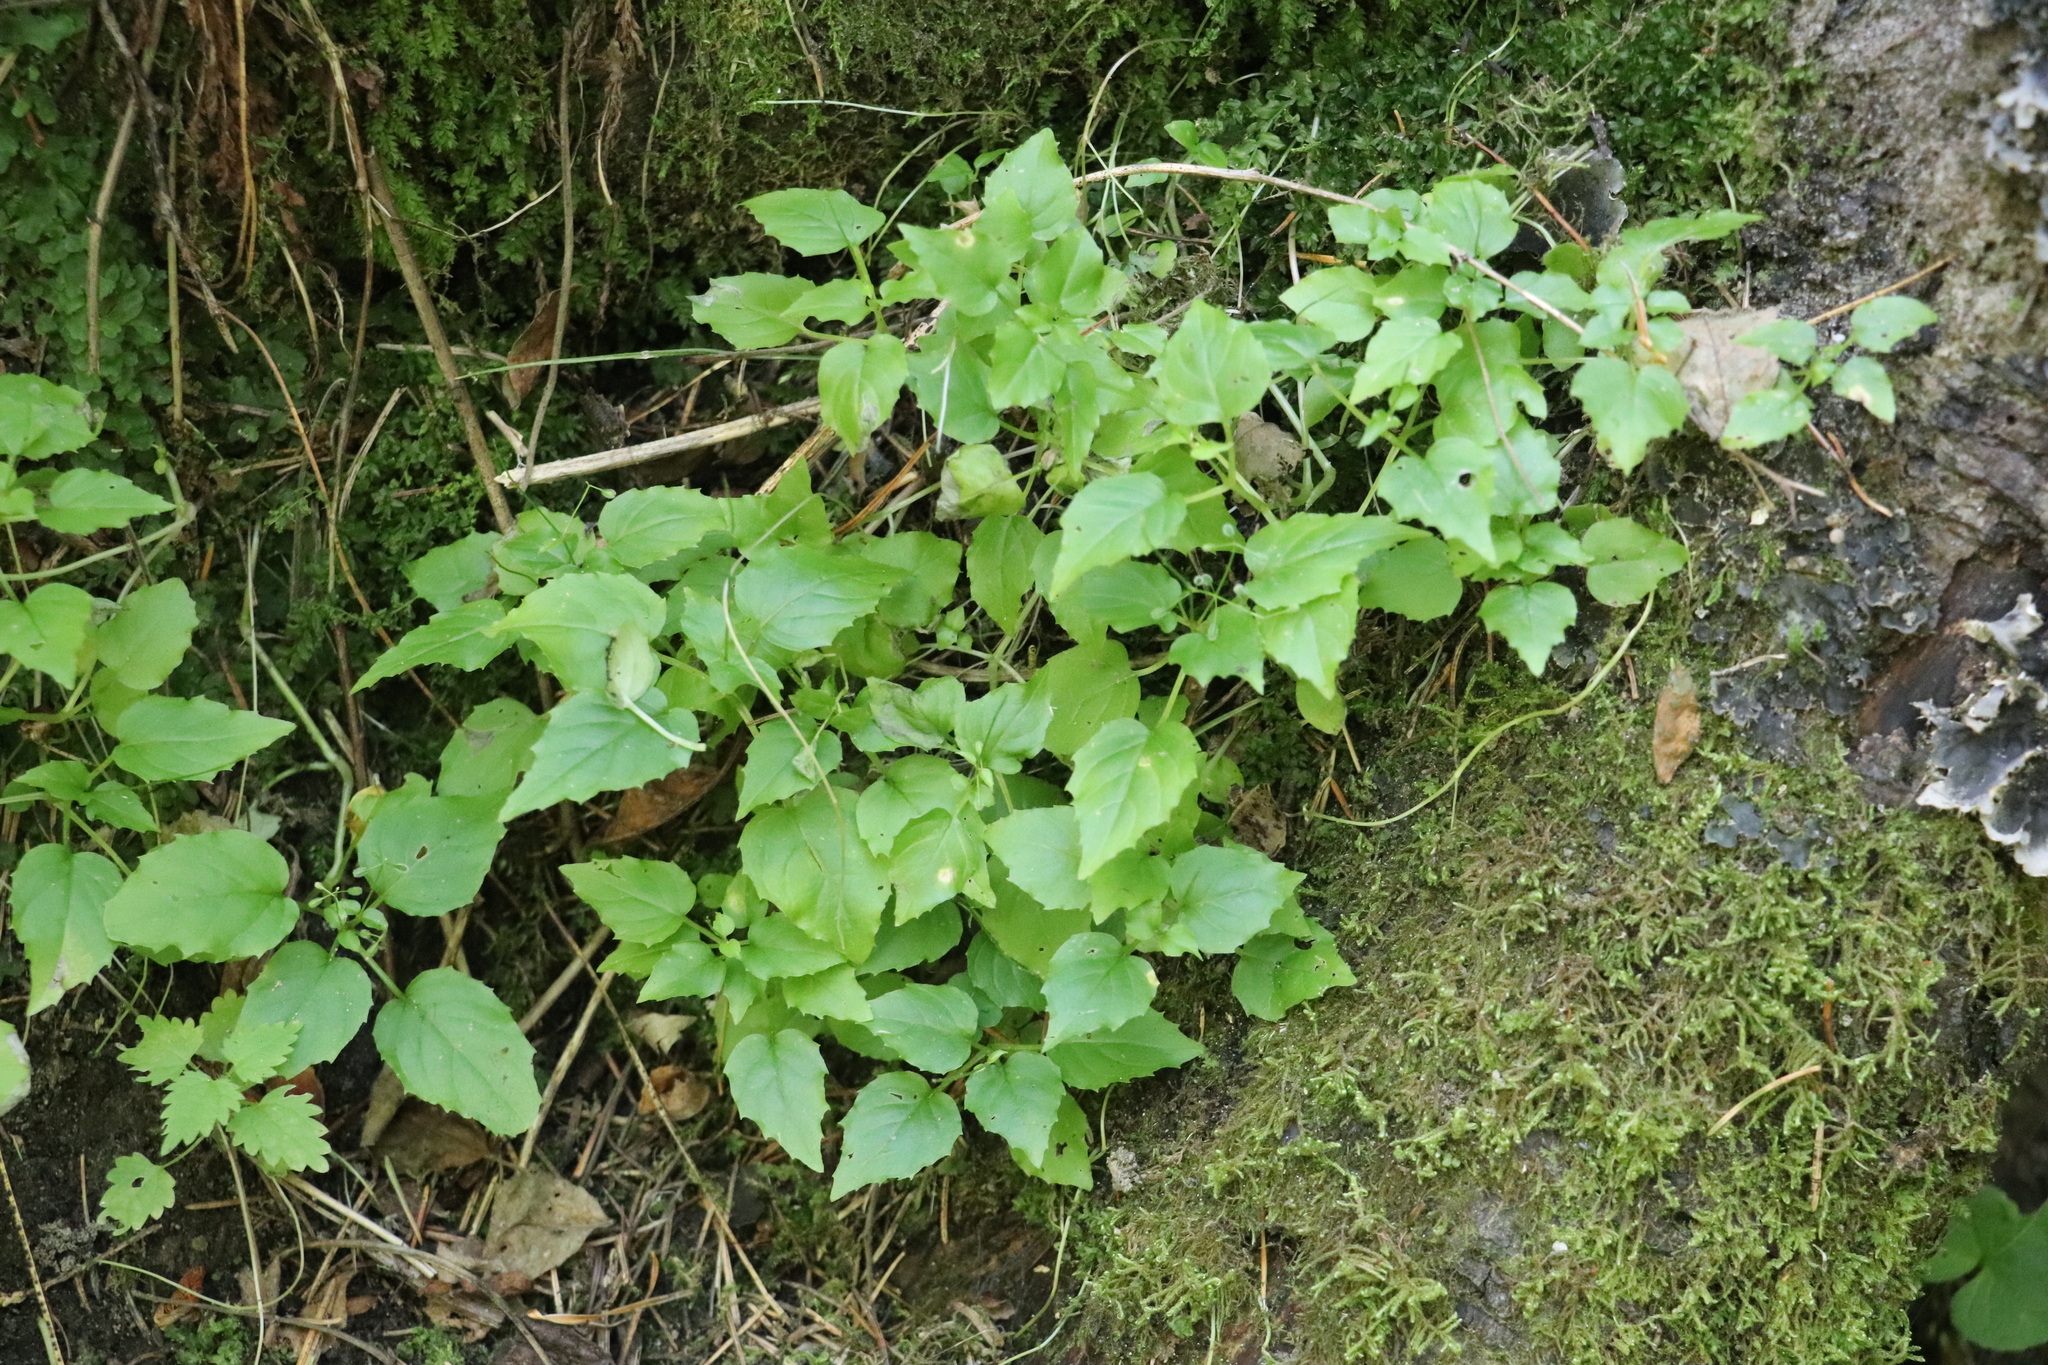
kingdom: Plantae
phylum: Tracheophyta
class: Magnoliopsida
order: Myrtales
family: Onagraceae
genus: Circaea
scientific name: Circaea alpina
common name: Alpine enchanter's-nightshade
